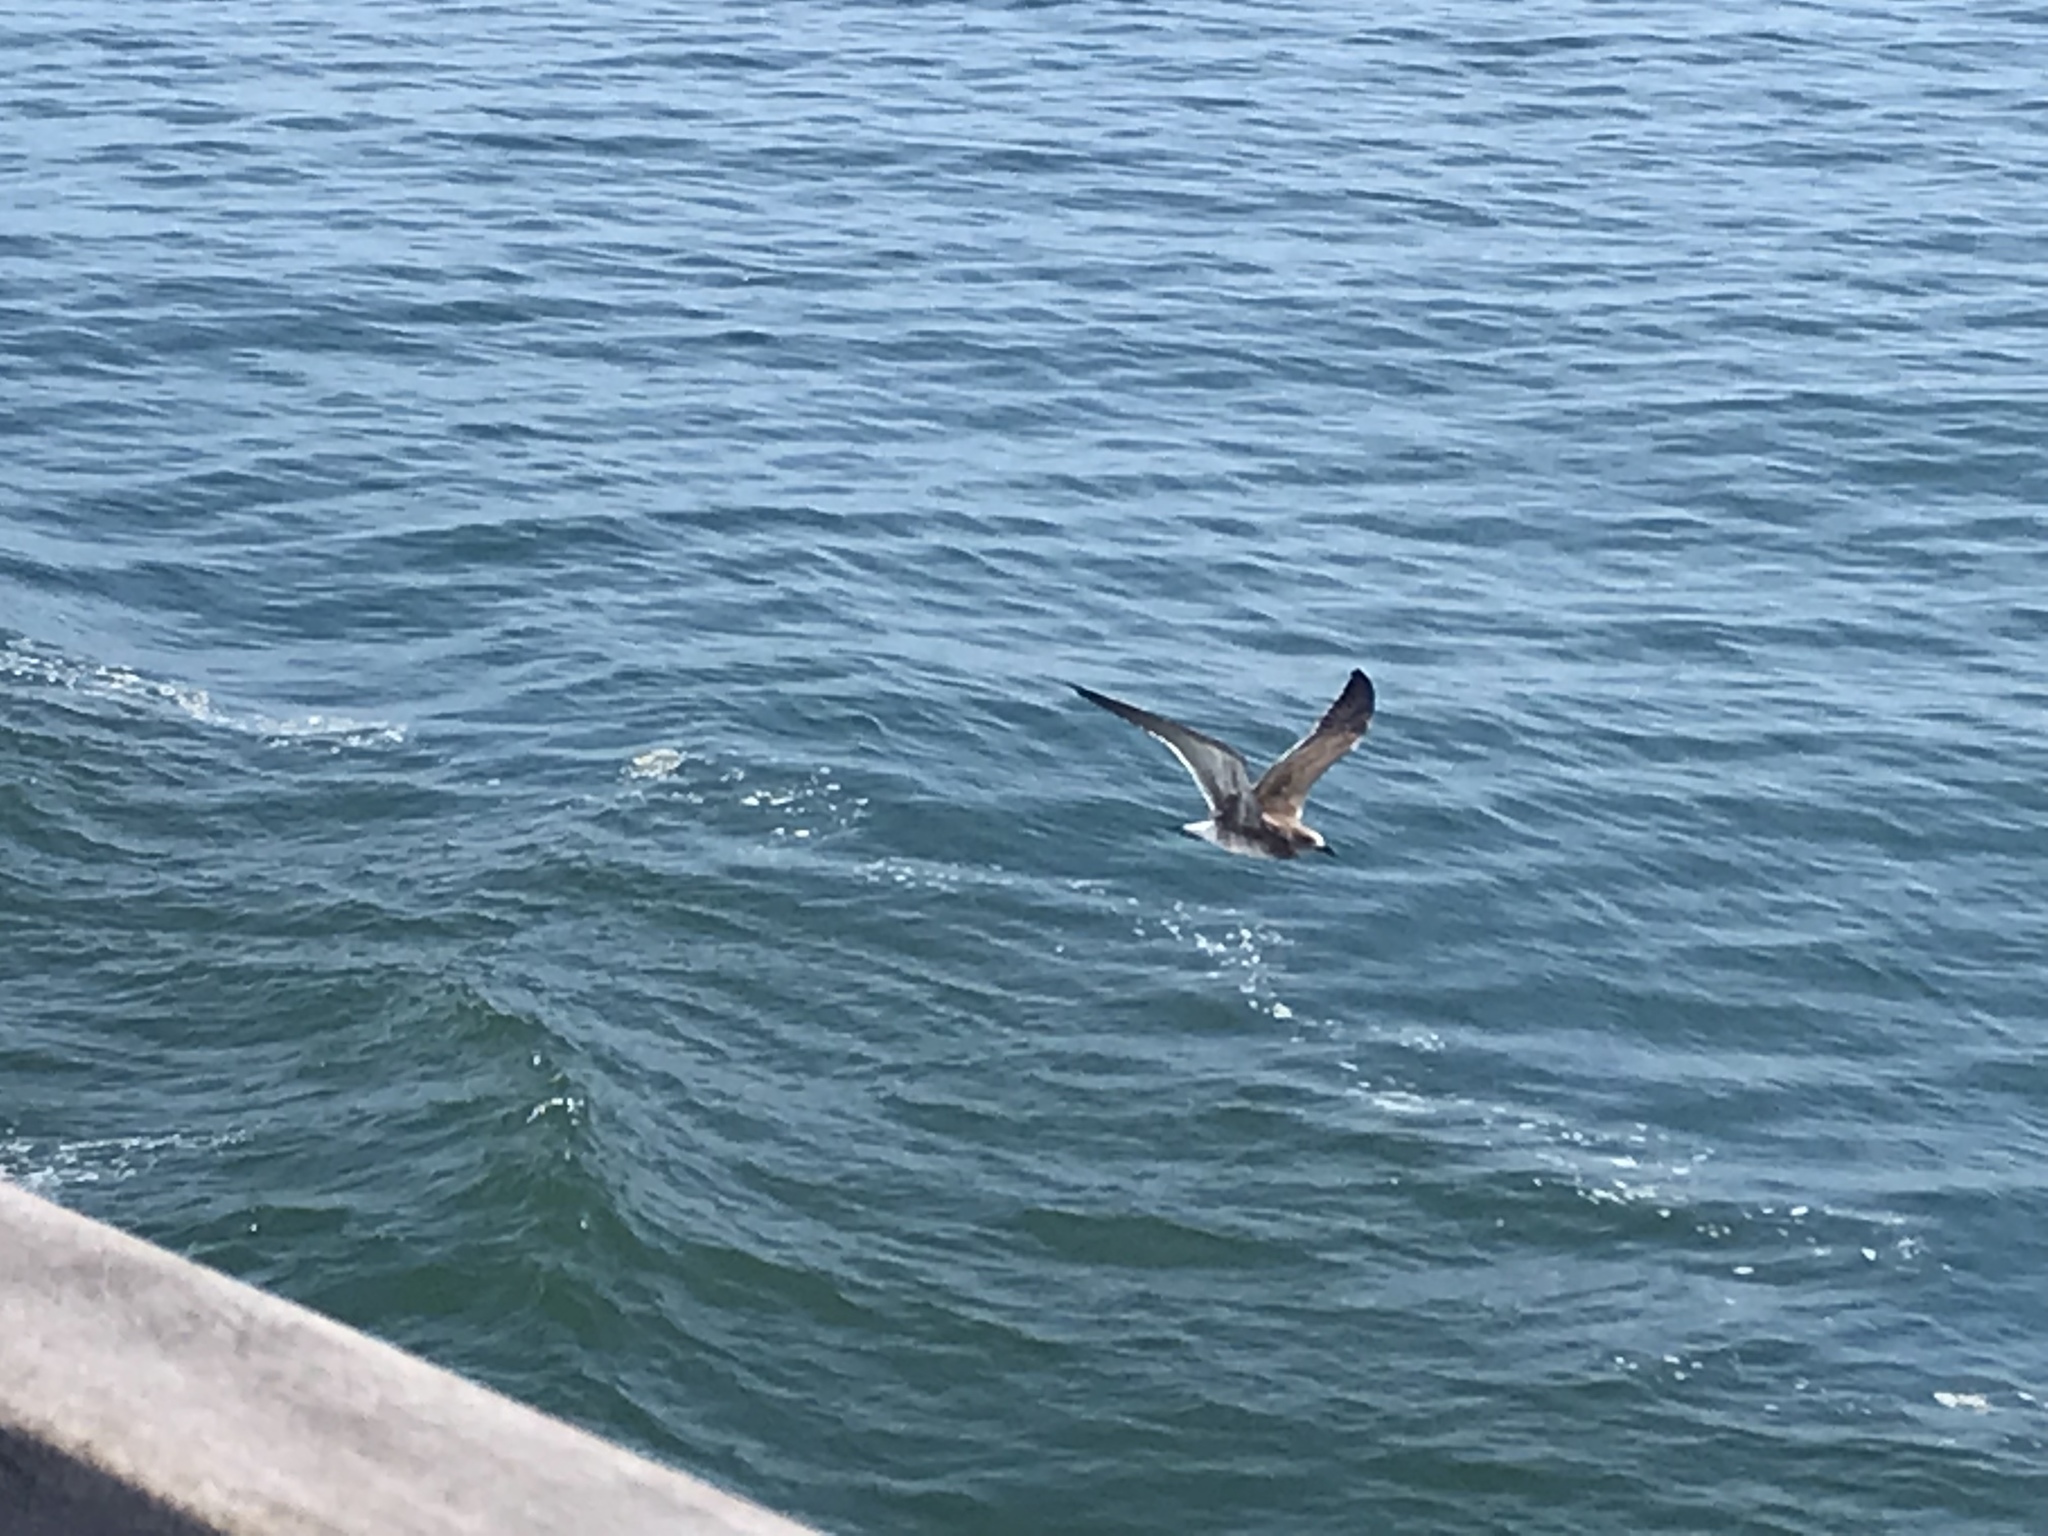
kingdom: Animalia
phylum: Chordata
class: Aves
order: Charadriiformes
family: Laridae
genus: Leucophaeus
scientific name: Leucophaeus atricilla
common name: Laughing gull
